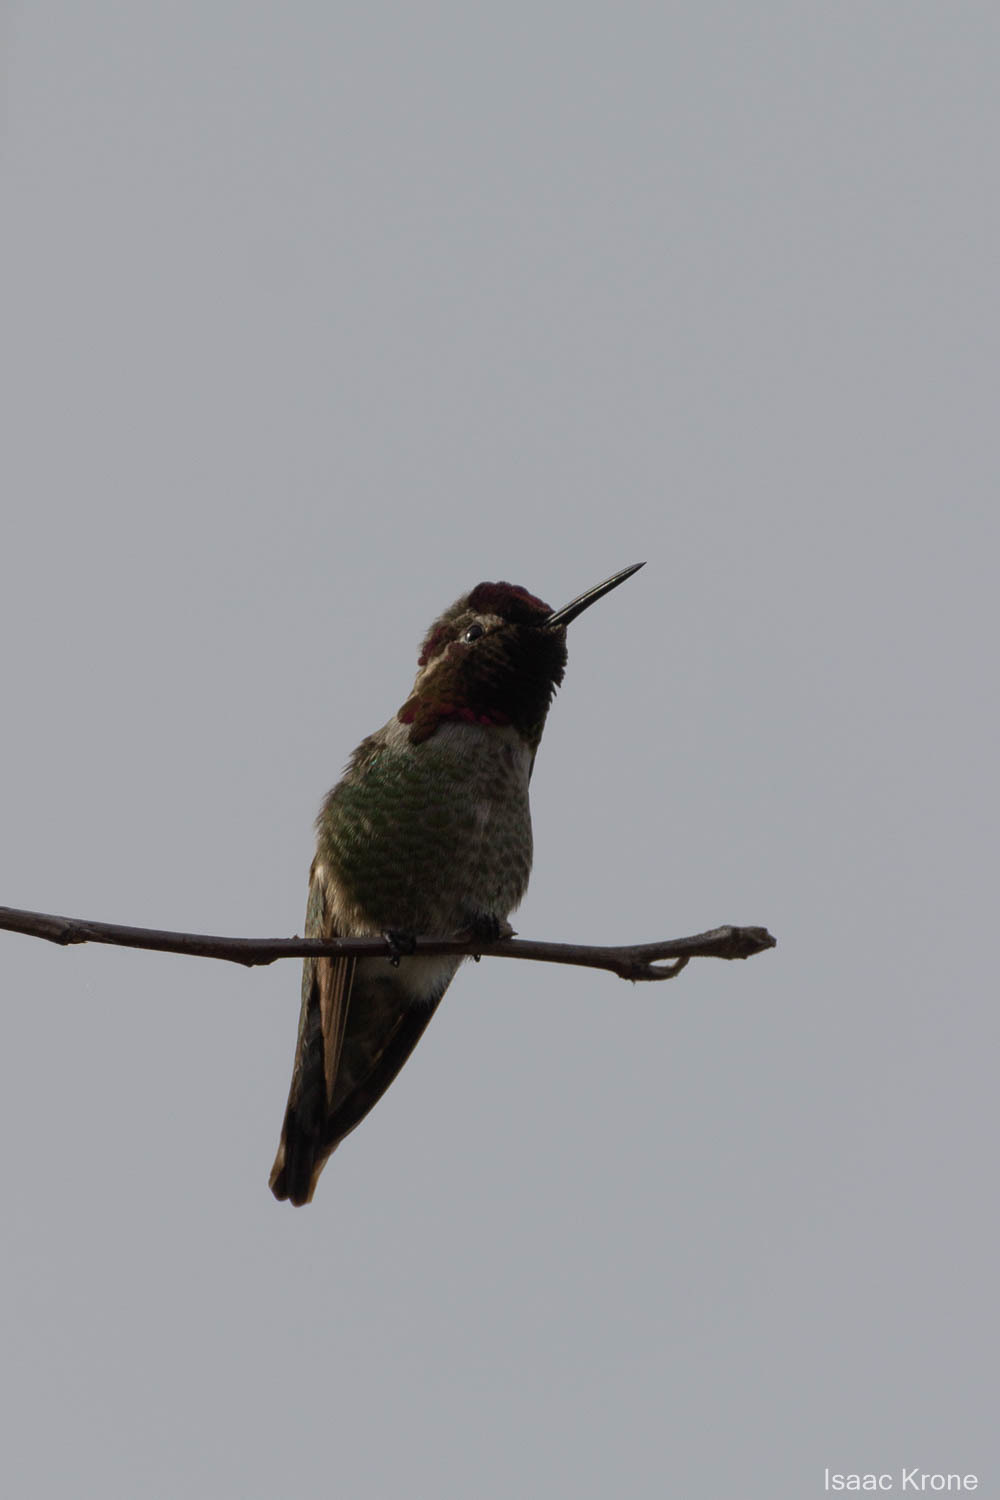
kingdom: Animalia
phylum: Chordata
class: Aves
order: Apodiformes
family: Trochilidae
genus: Calypte
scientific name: Calypte anna
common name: Anna's hummingbird
